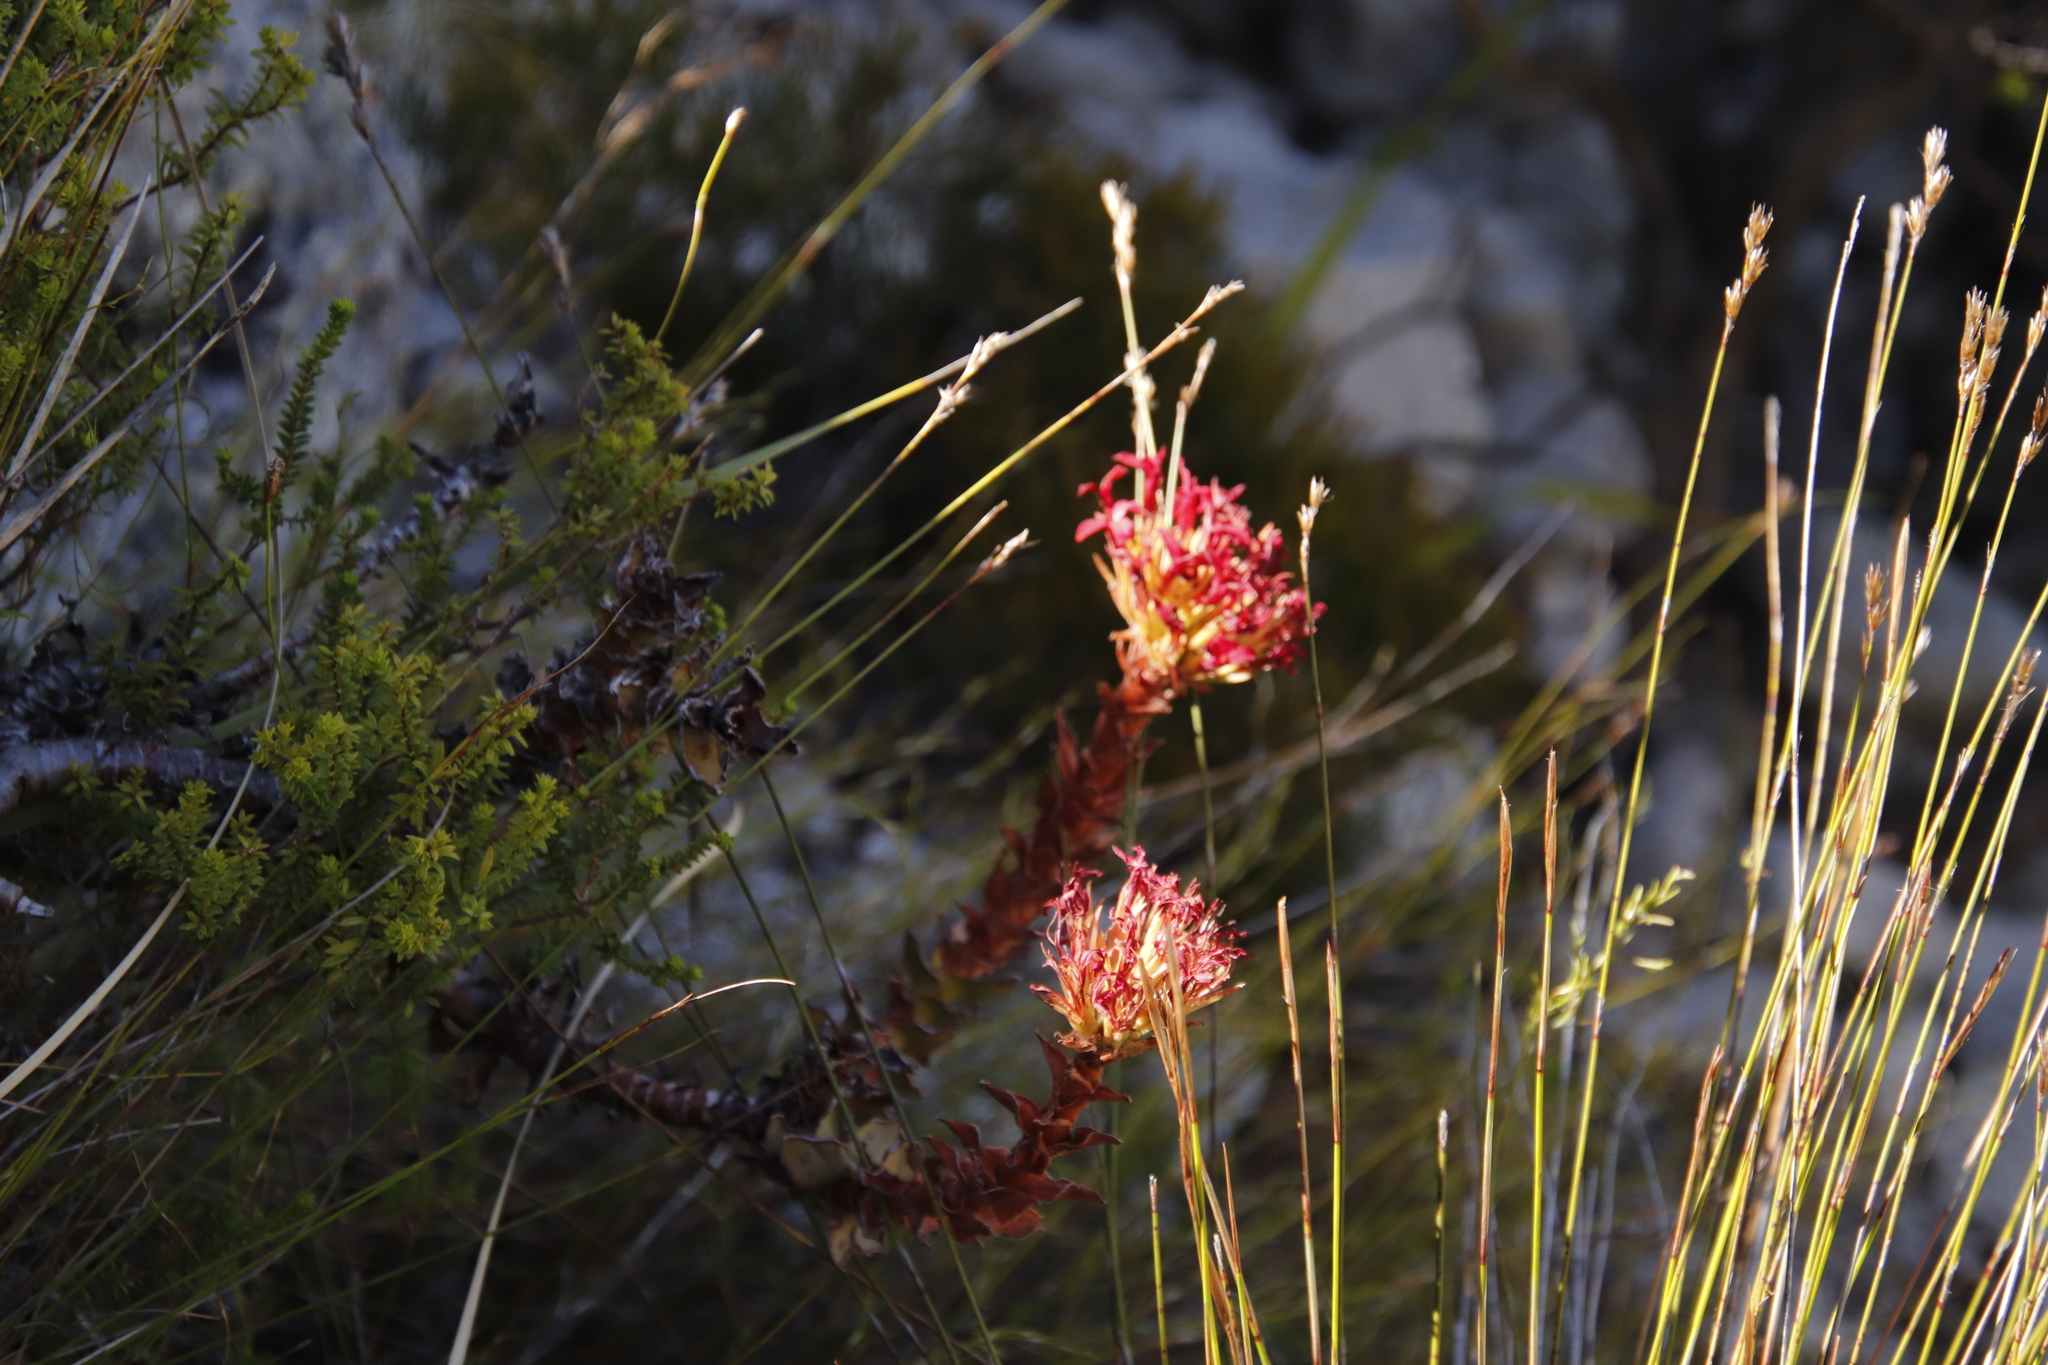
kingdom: Plantae
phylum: Tracheophyta
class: Magnoliopsida
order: Saxifragales
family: Crassulaceae
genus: Crassula
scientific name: Crassula coccinea
